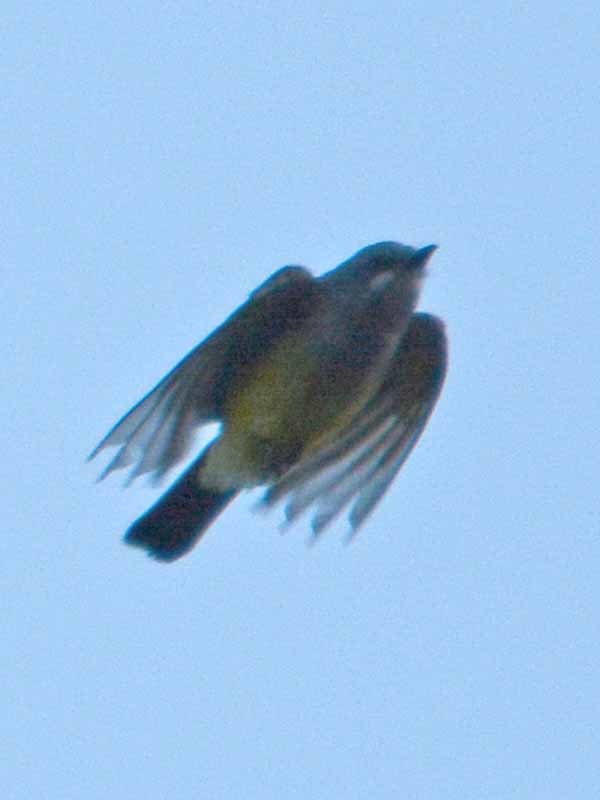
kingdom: Animalia
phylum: Chordata
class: Aves
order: Passeriformes
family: Tyrannidae
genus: Tyrannus
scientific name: Tyrannus vociferans
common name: Cassin's kingbird
